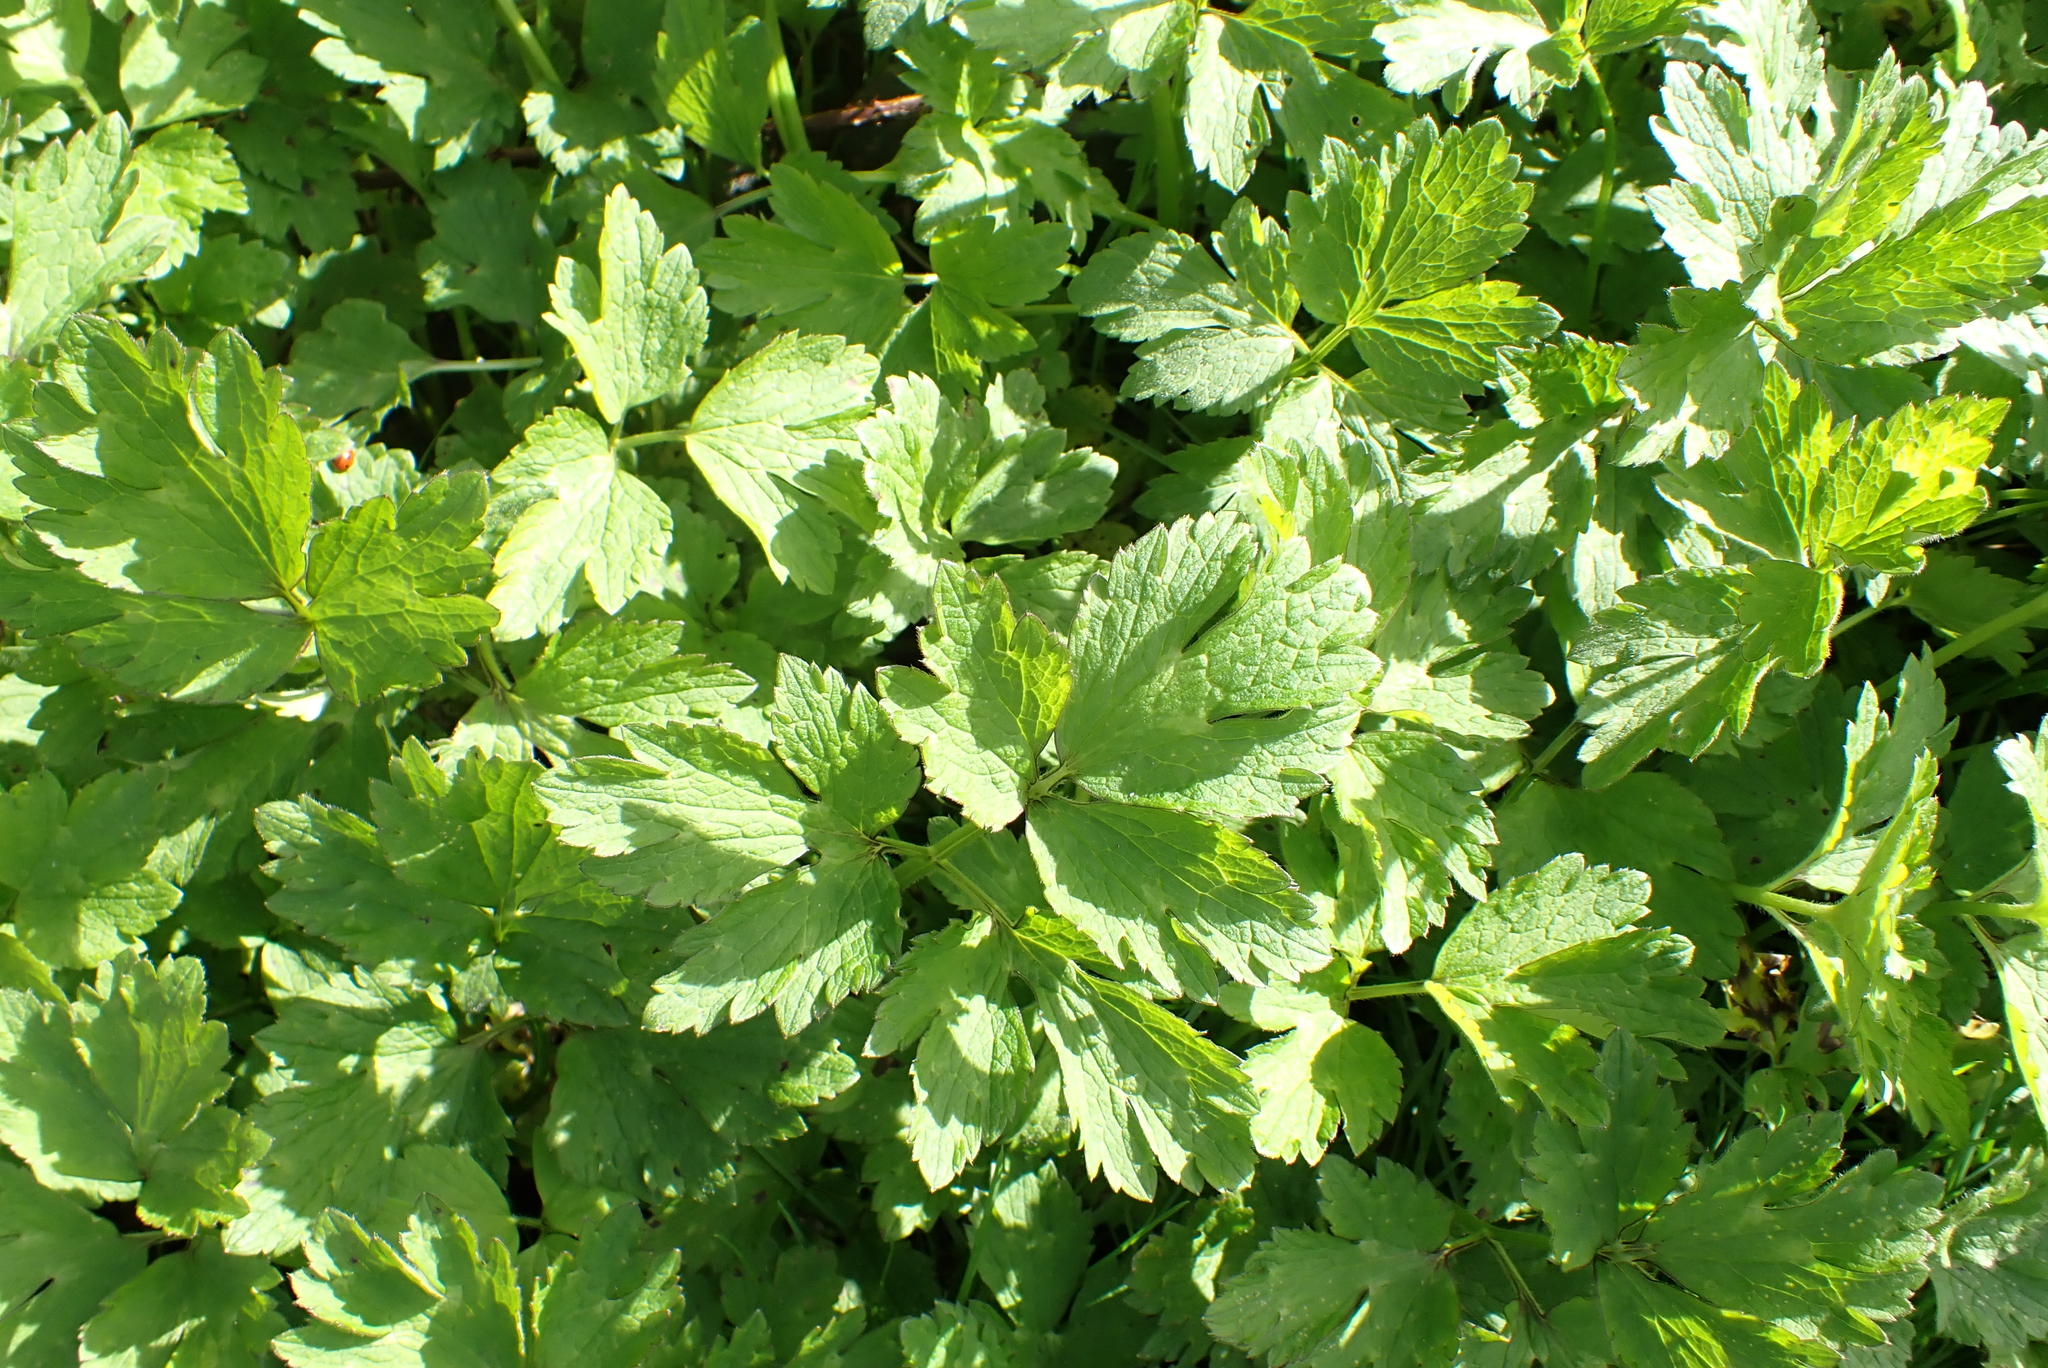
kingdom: Plantae
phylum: Tracheophyta
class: Magnoliopsida
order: Ranunculales
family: Ranunculaceae
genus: Ranunculus
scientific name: Ranunculus repens
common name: Creeping buttercup
